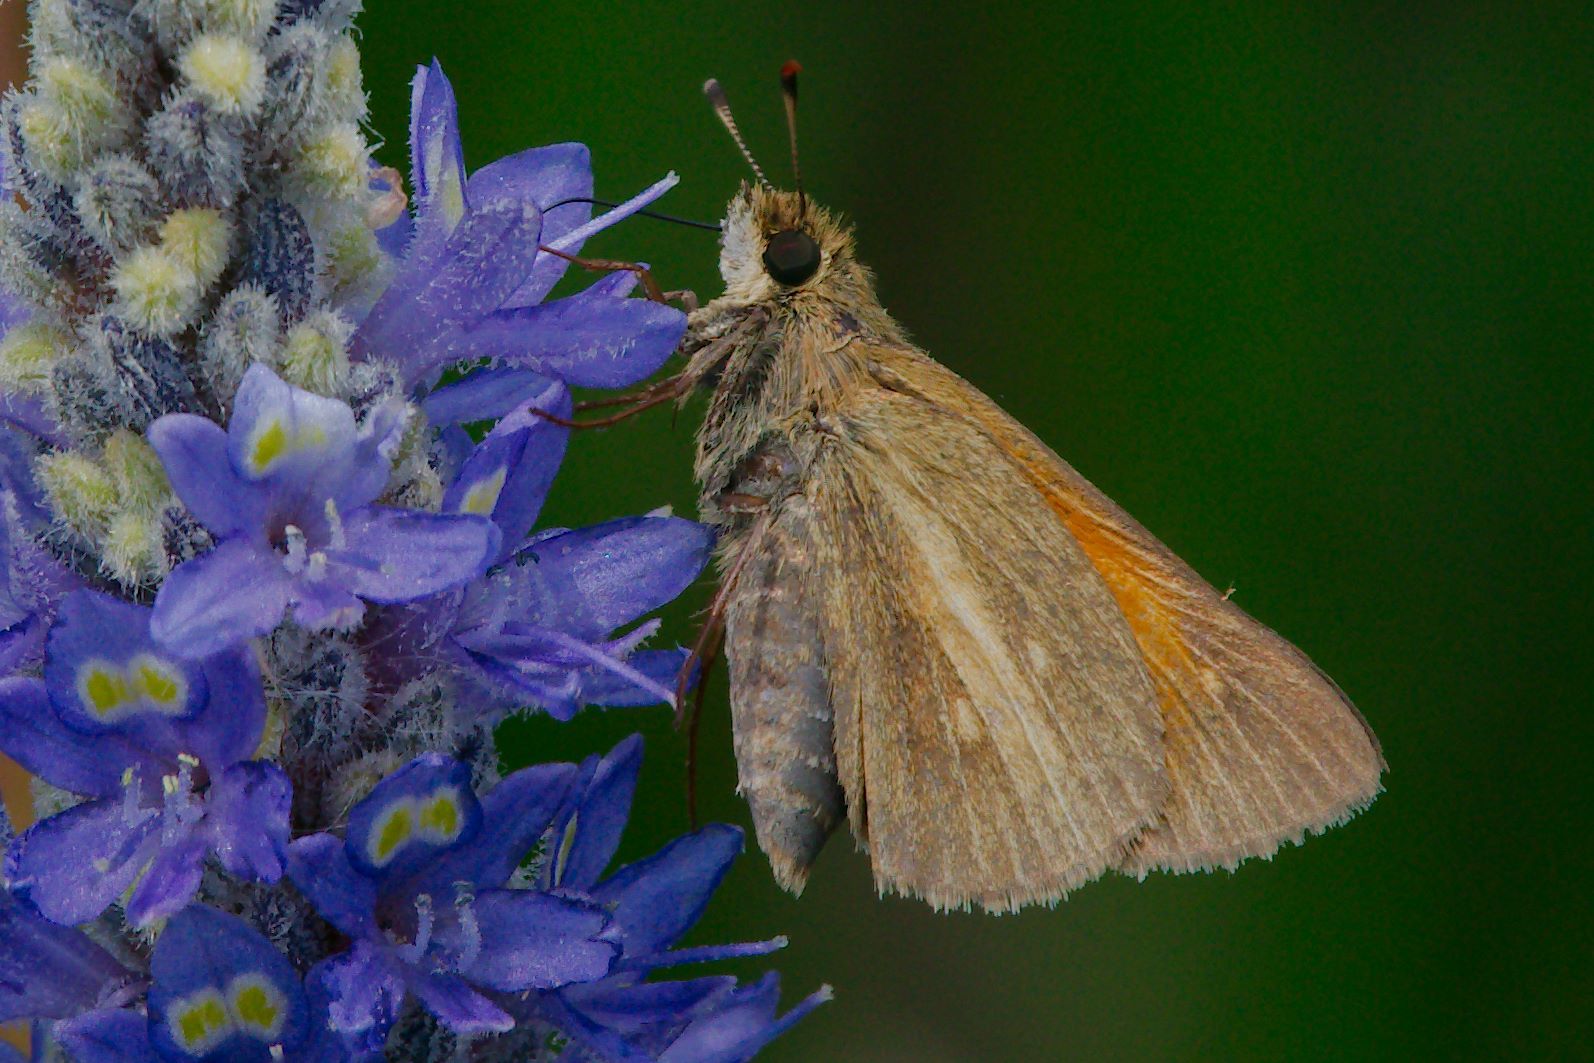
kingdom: Animalia
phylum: Arthropoda
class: Insecta
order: Lepidoptera
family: Hesperiidae
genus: Poanes
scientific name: Poanes aaroni
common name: Aaron's skipper
